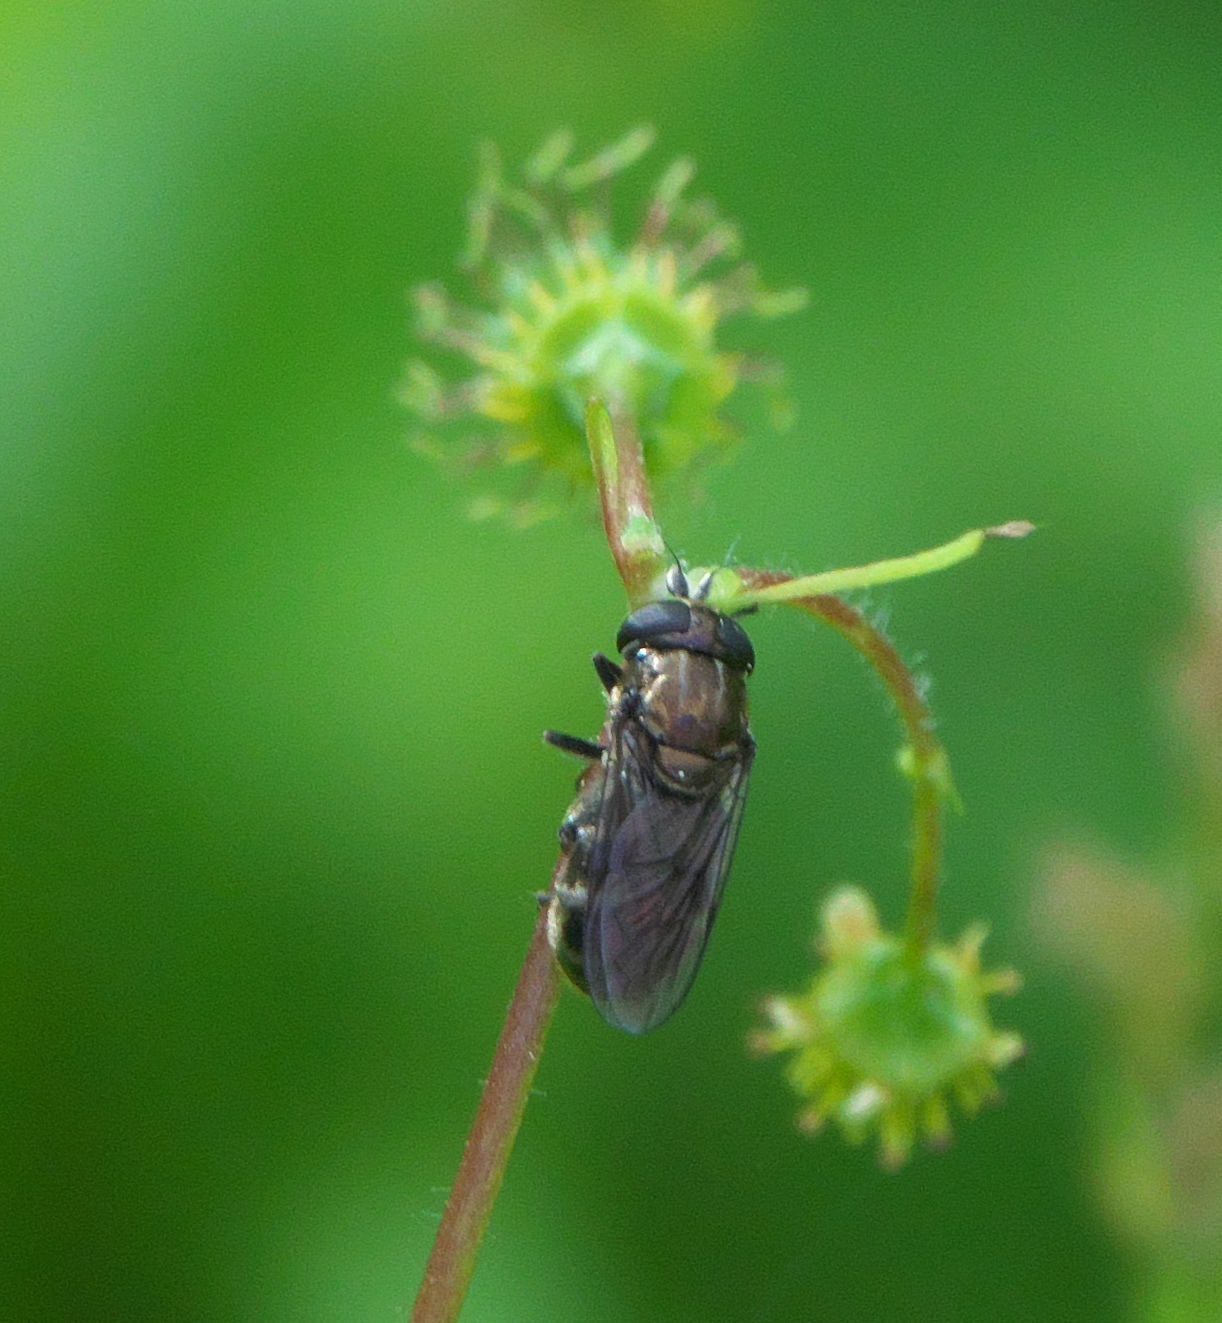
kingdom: Animalia
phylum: Arthropoda
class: Insecta
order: Diptera
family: Syrphidae
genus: Eumerus
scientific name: Eumerus
